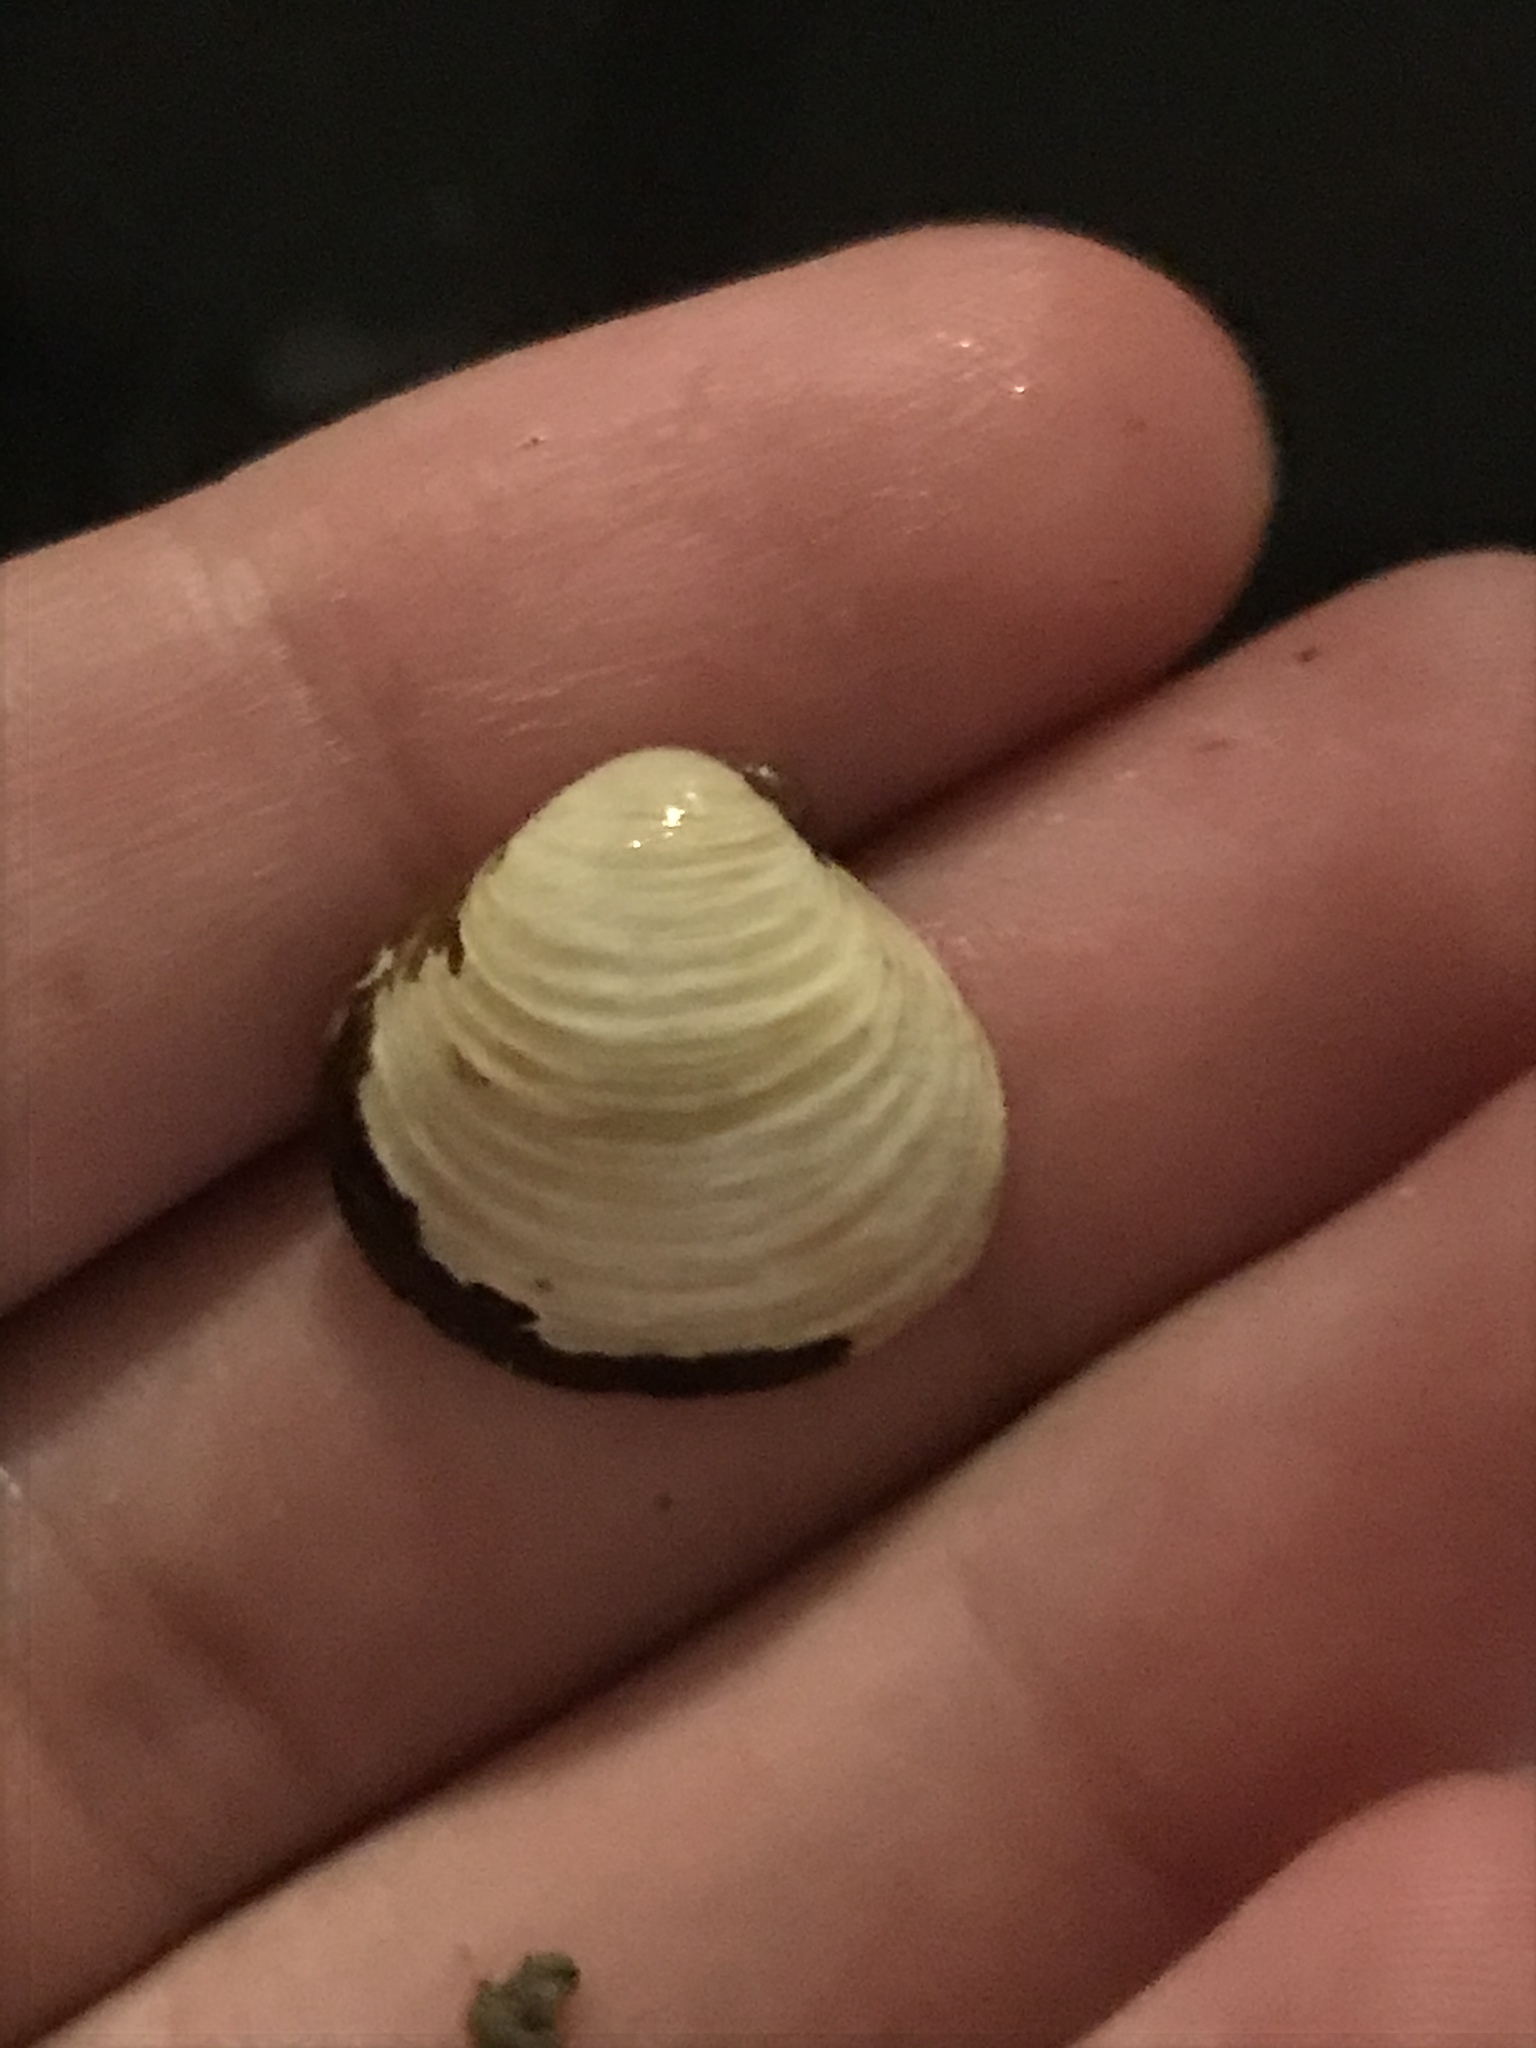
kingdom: Animalia
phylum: Mollusca
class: Bivalvia
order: Venerida
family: Cyrenidae
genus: Corbicula
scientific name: Corbicula fluminea
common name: Asian clam
